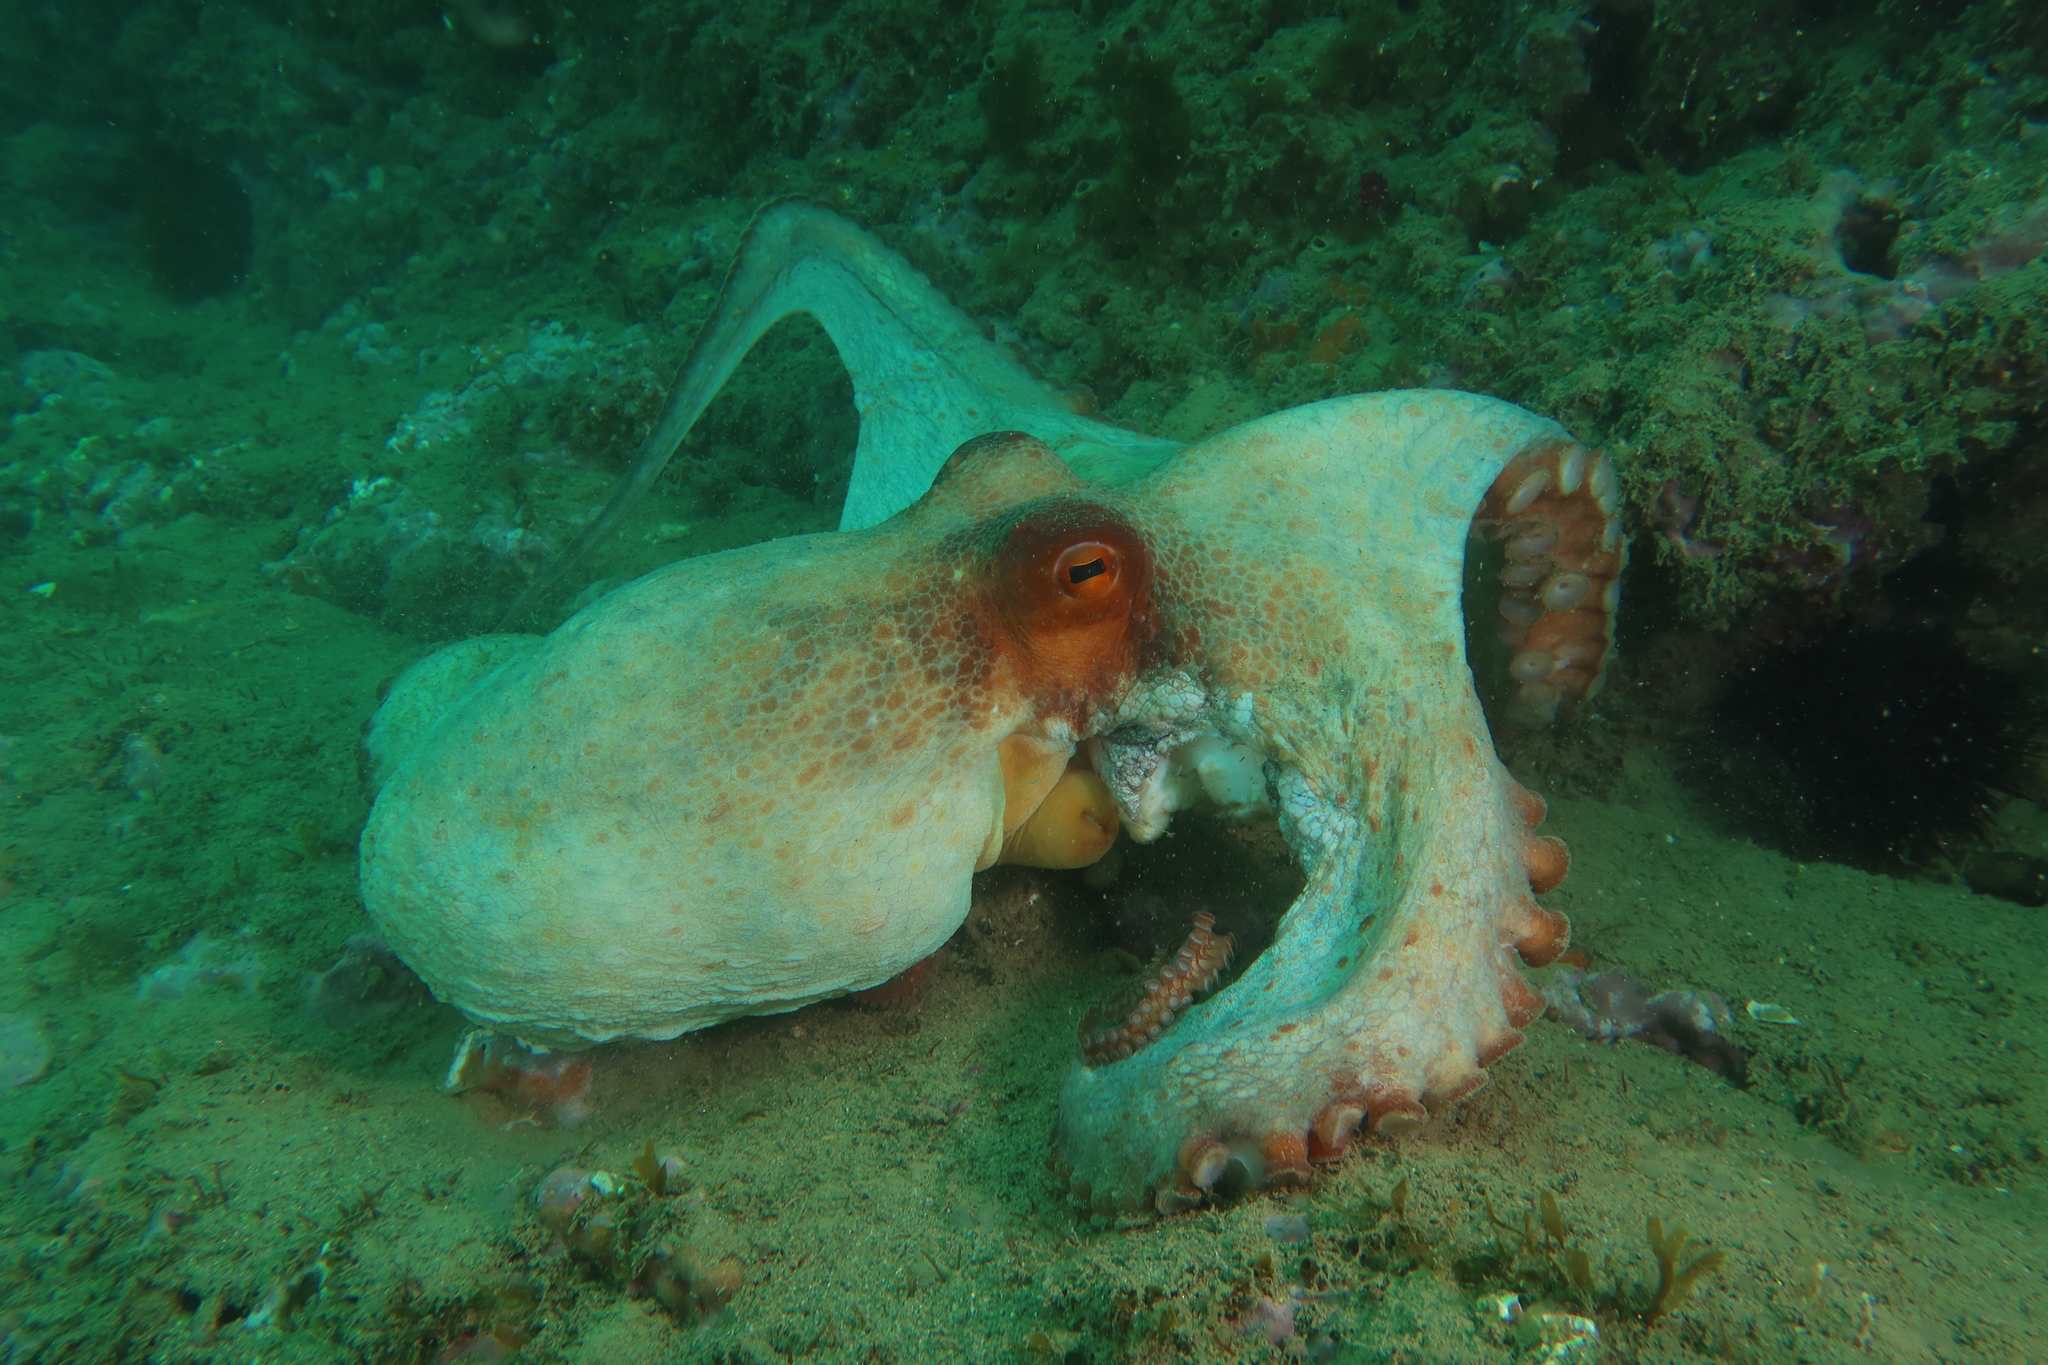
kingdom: Animalia
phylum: Mollusca
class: Cephalopoda
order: Octopoda
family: Octopodidae
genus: Octopus
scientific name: Octopus vulgaris
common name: Common octopus
